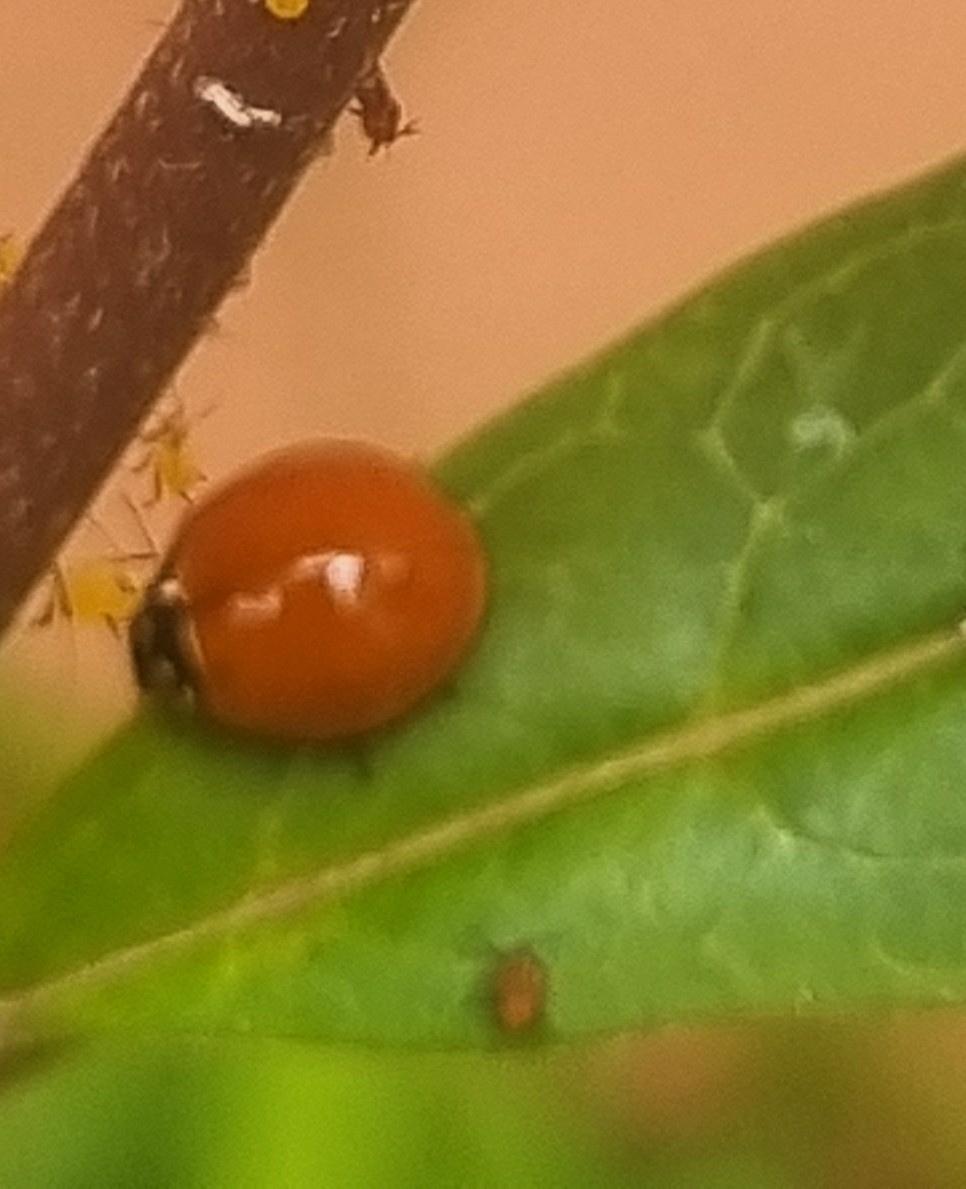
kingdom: Animalia
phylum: Arthropoda
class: Insecta
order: Coleoptera
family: Coccinellidae
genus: Cycloneda
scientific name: Cycloneda sanguinea
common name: Ladybird beetle
